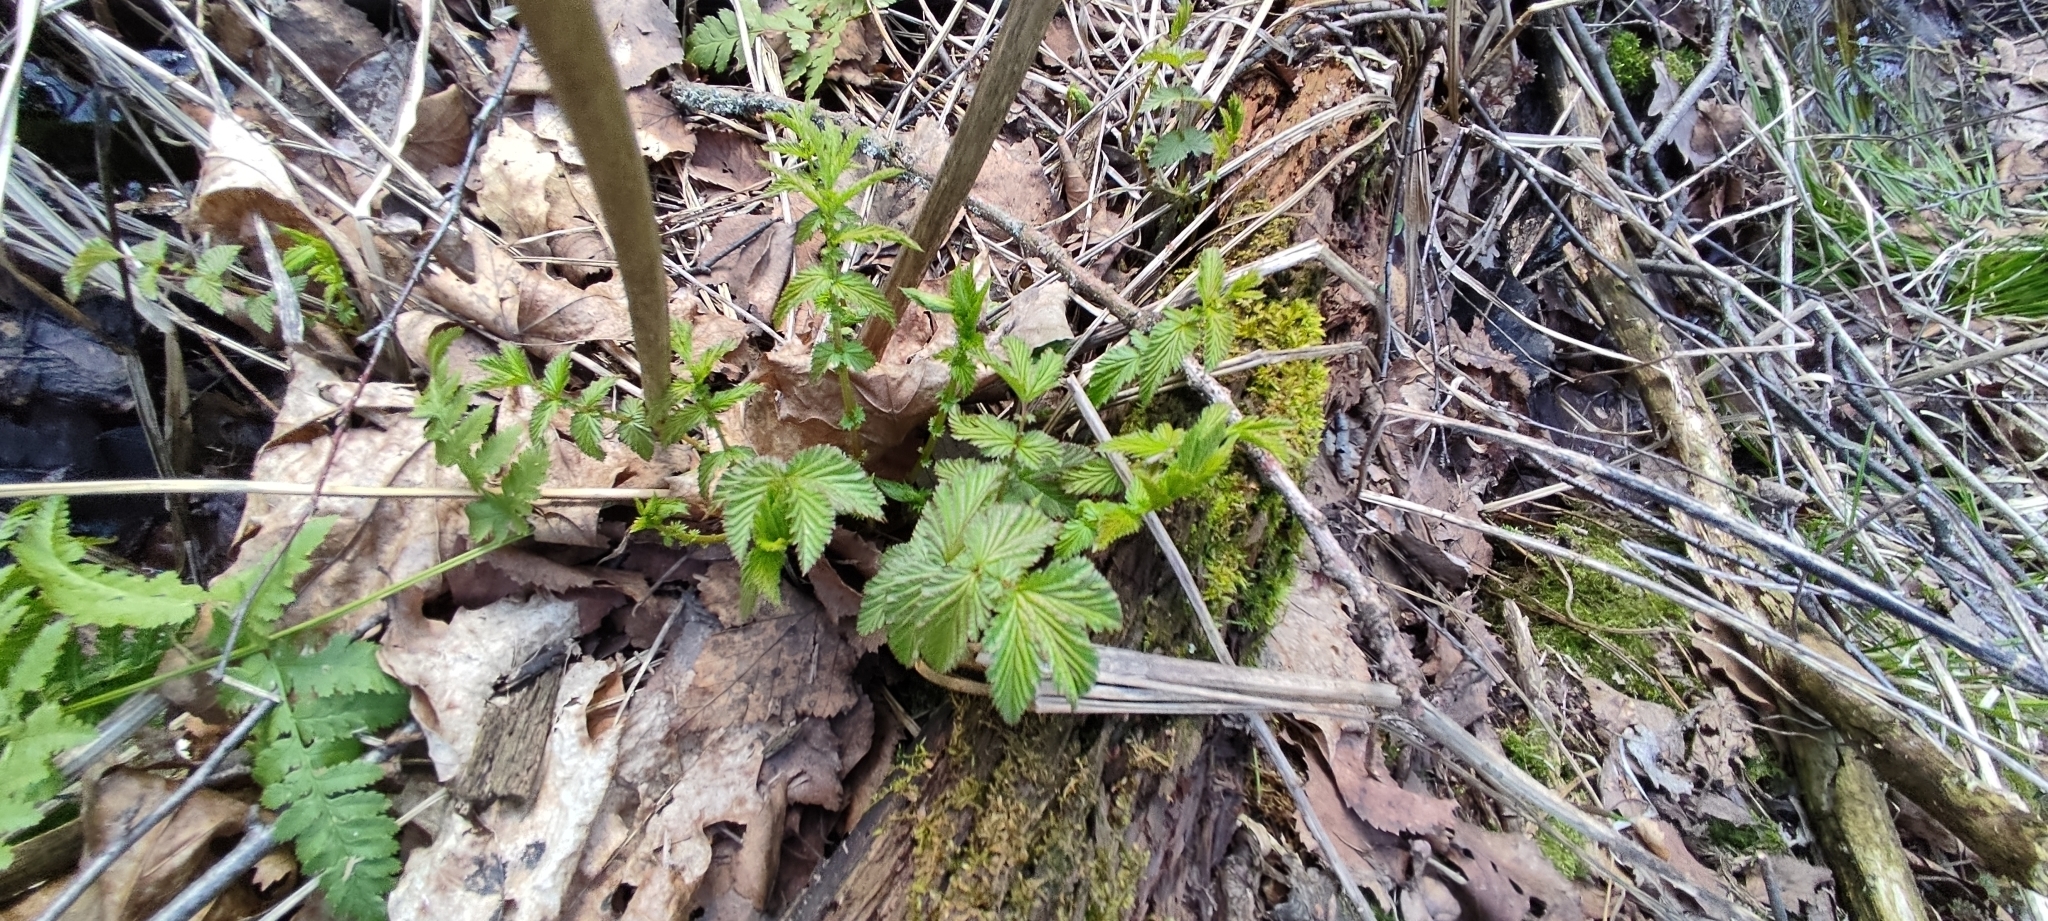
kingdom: Plantae
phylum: Tracheophyta
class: Magnoliopsida
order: Rosales
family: Rosaceae
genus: Filipendula
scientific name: Filipendula ulmaria
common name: Meadowsweet
